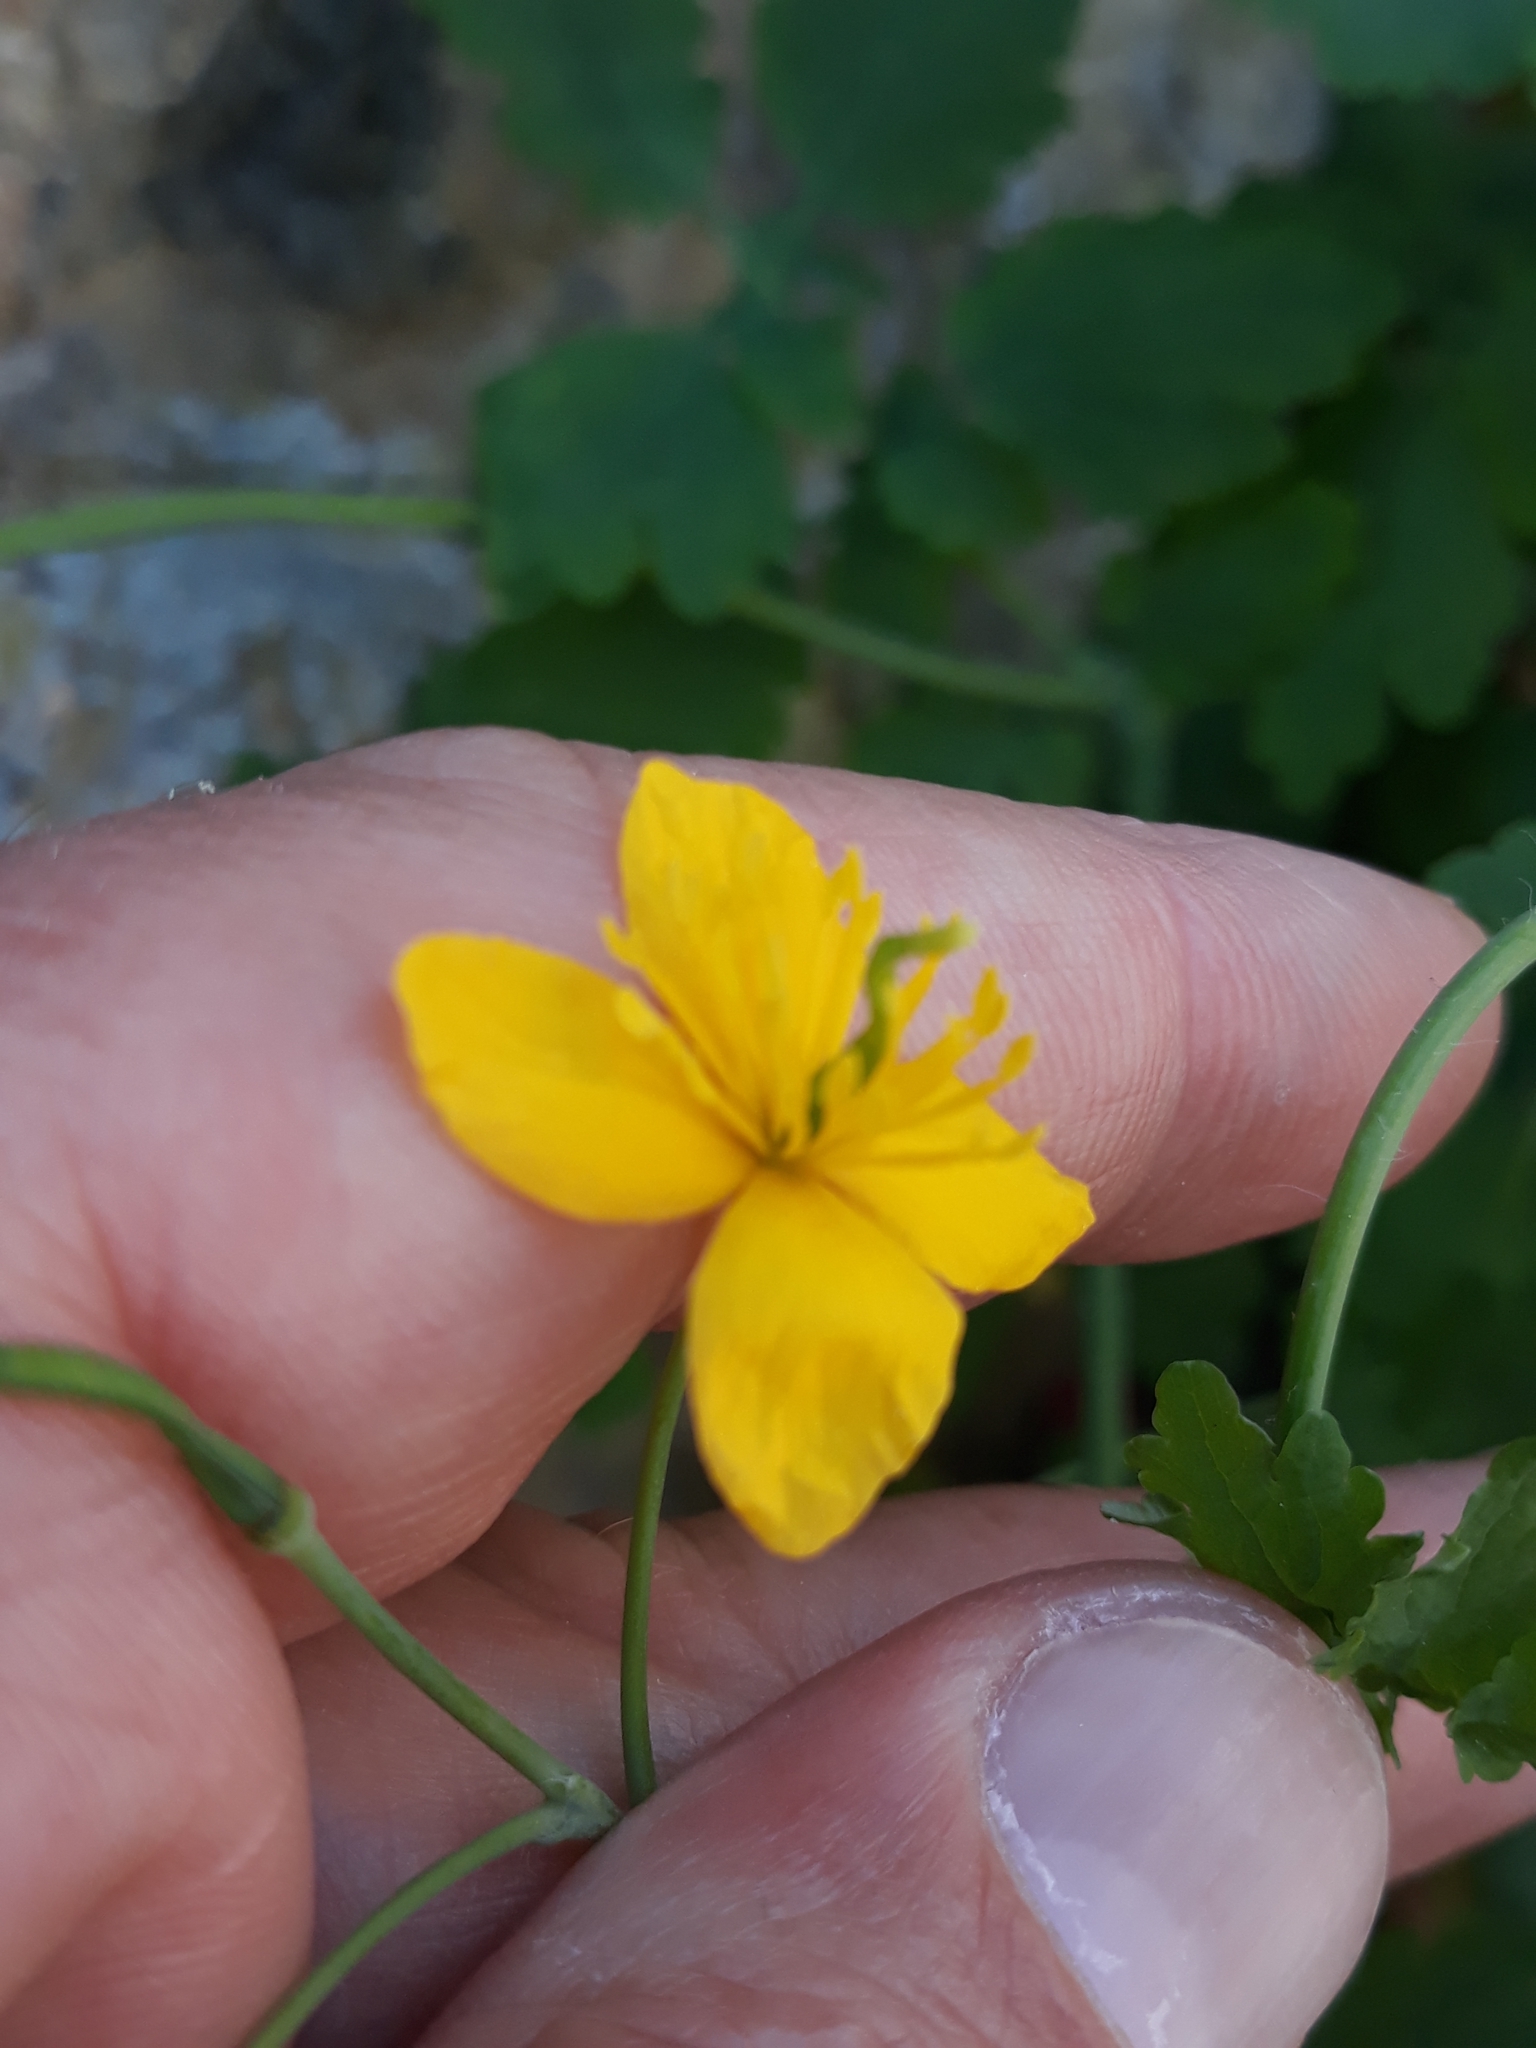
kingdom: Plantae
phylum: Tracheophyta
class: Magnoliopsida
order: Ranunculales
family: Papaveraceae
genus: Chelidonium
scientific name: Chelidonium majus
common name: Greater celandine
